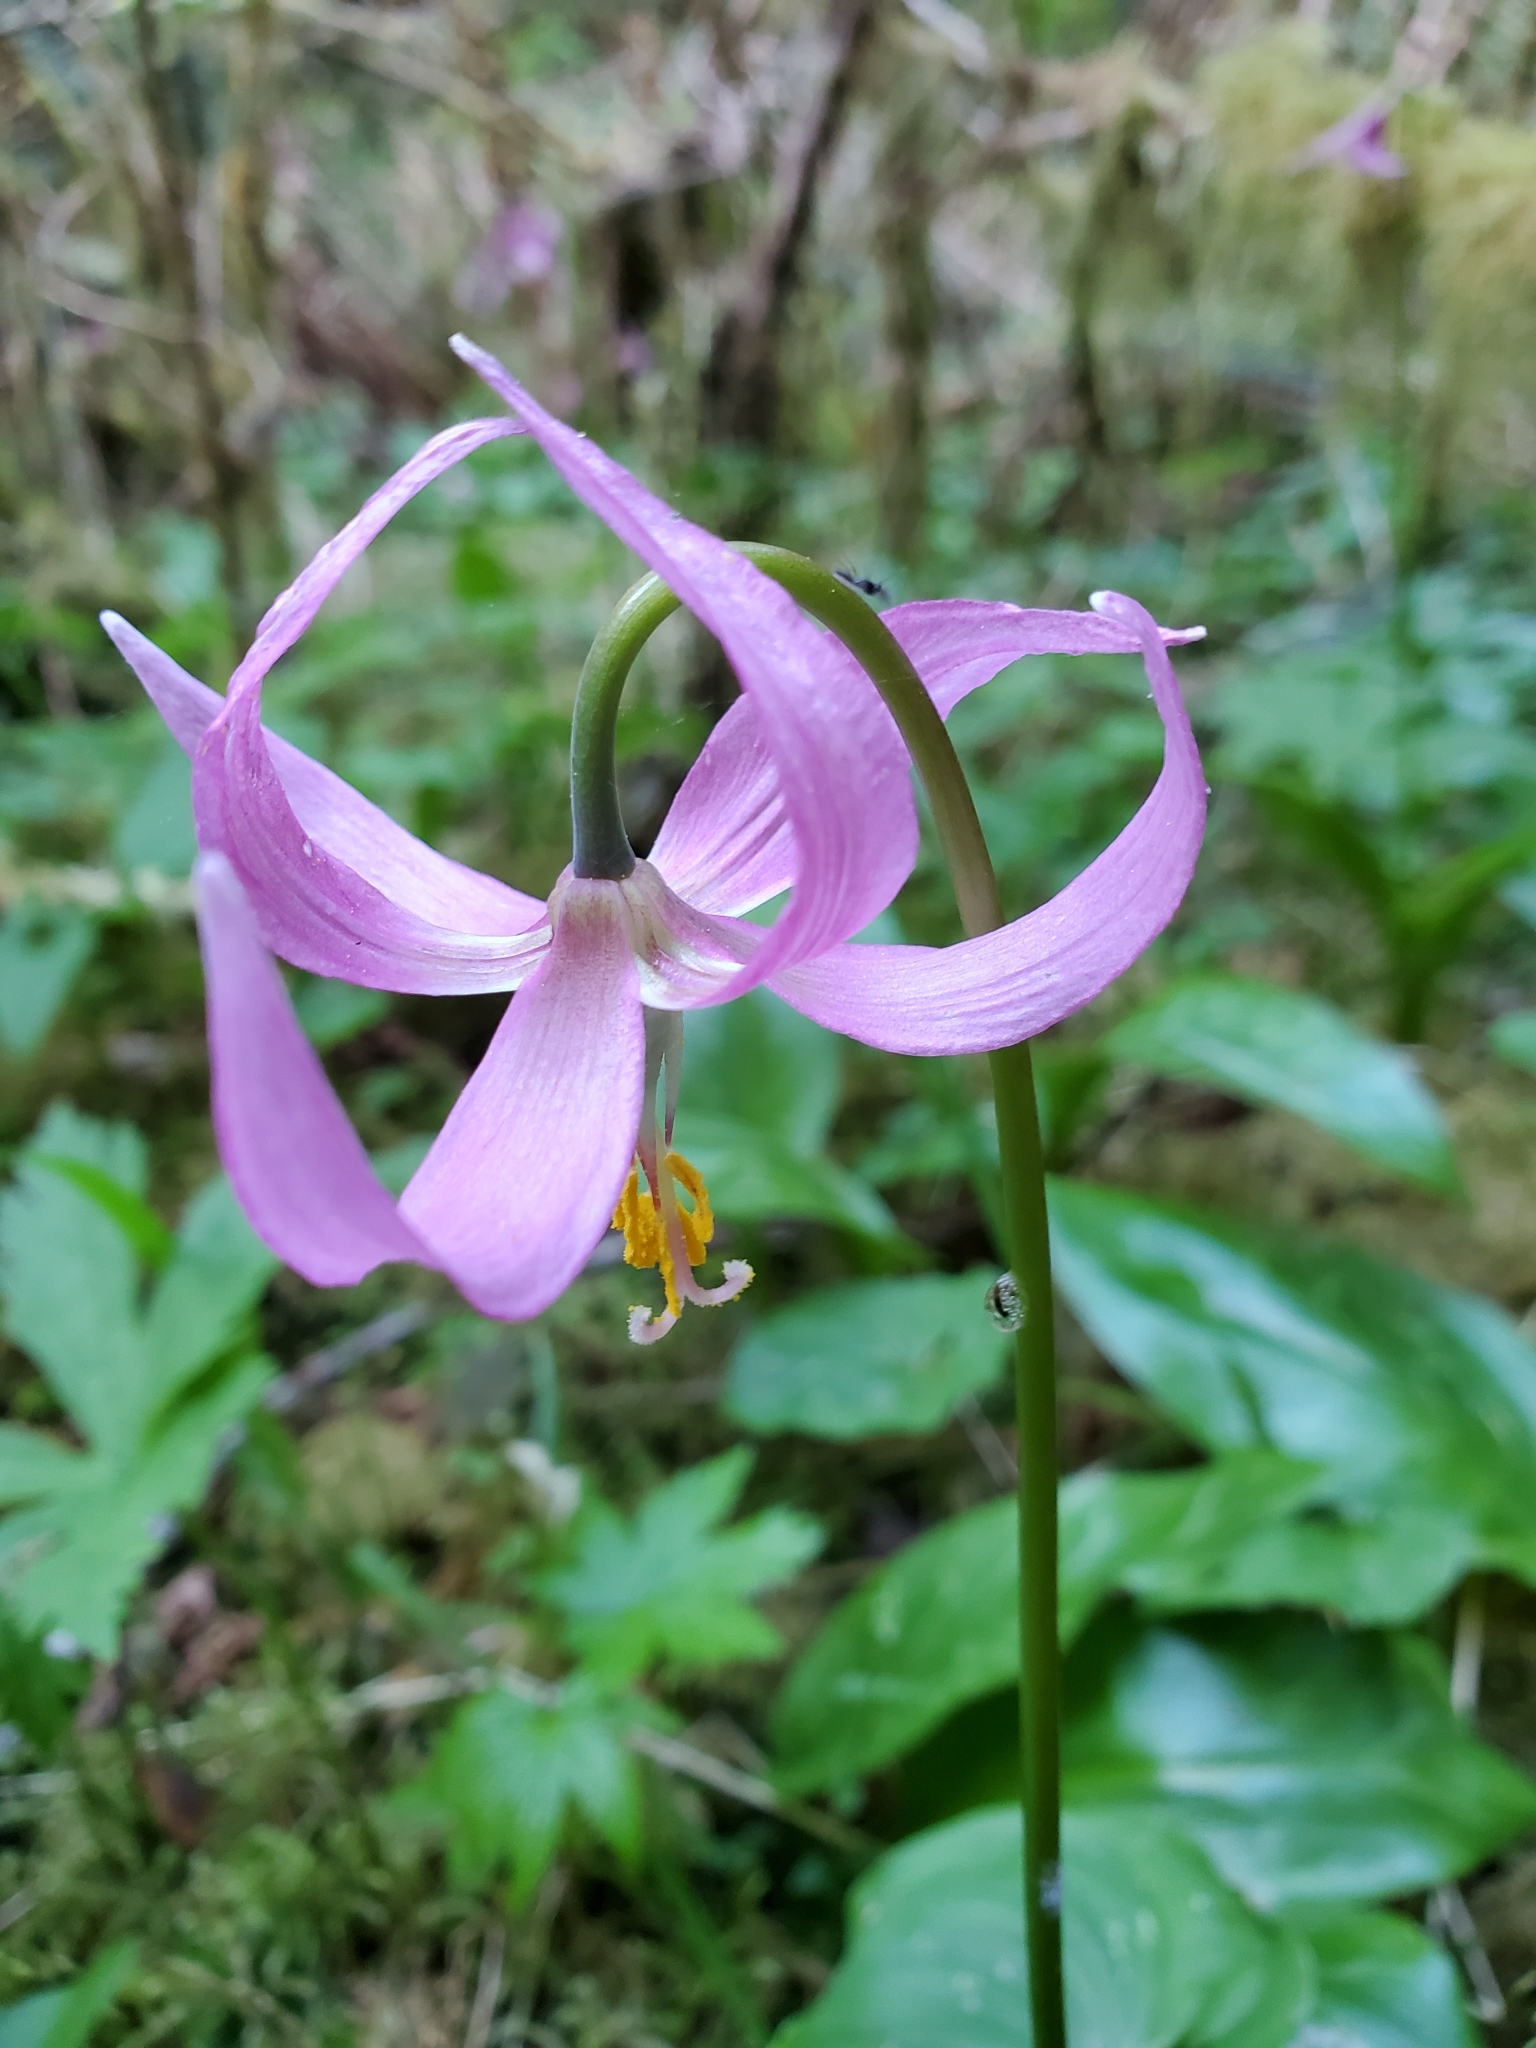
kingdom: Plantae
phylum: Tracheophyta
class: Liliopsida
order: Liliales
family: Liliaceae
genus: Erythronium
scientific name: Erythronium revolutum
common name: Pink fawn-lily
